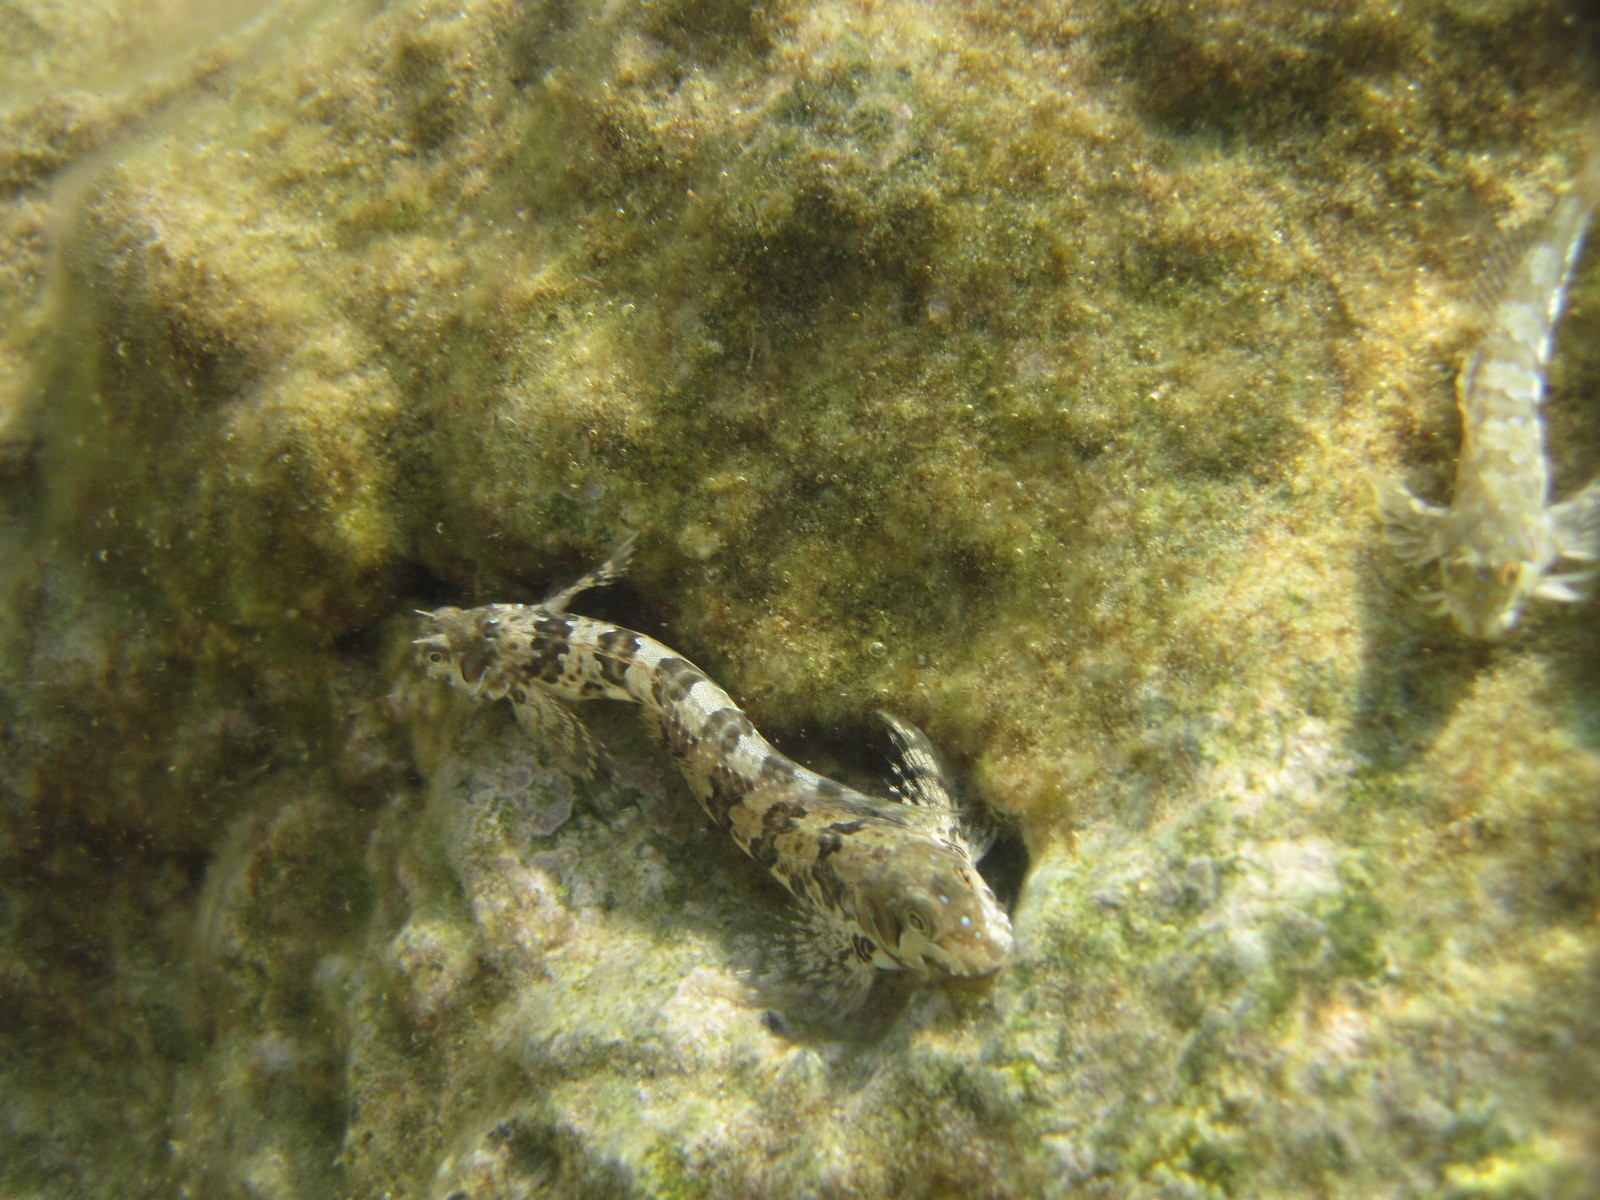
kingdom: Animalia
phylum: Chordata
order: Perciformes
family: Blenniidae
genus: Aidablennius
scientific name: Aidablennius sphynx
